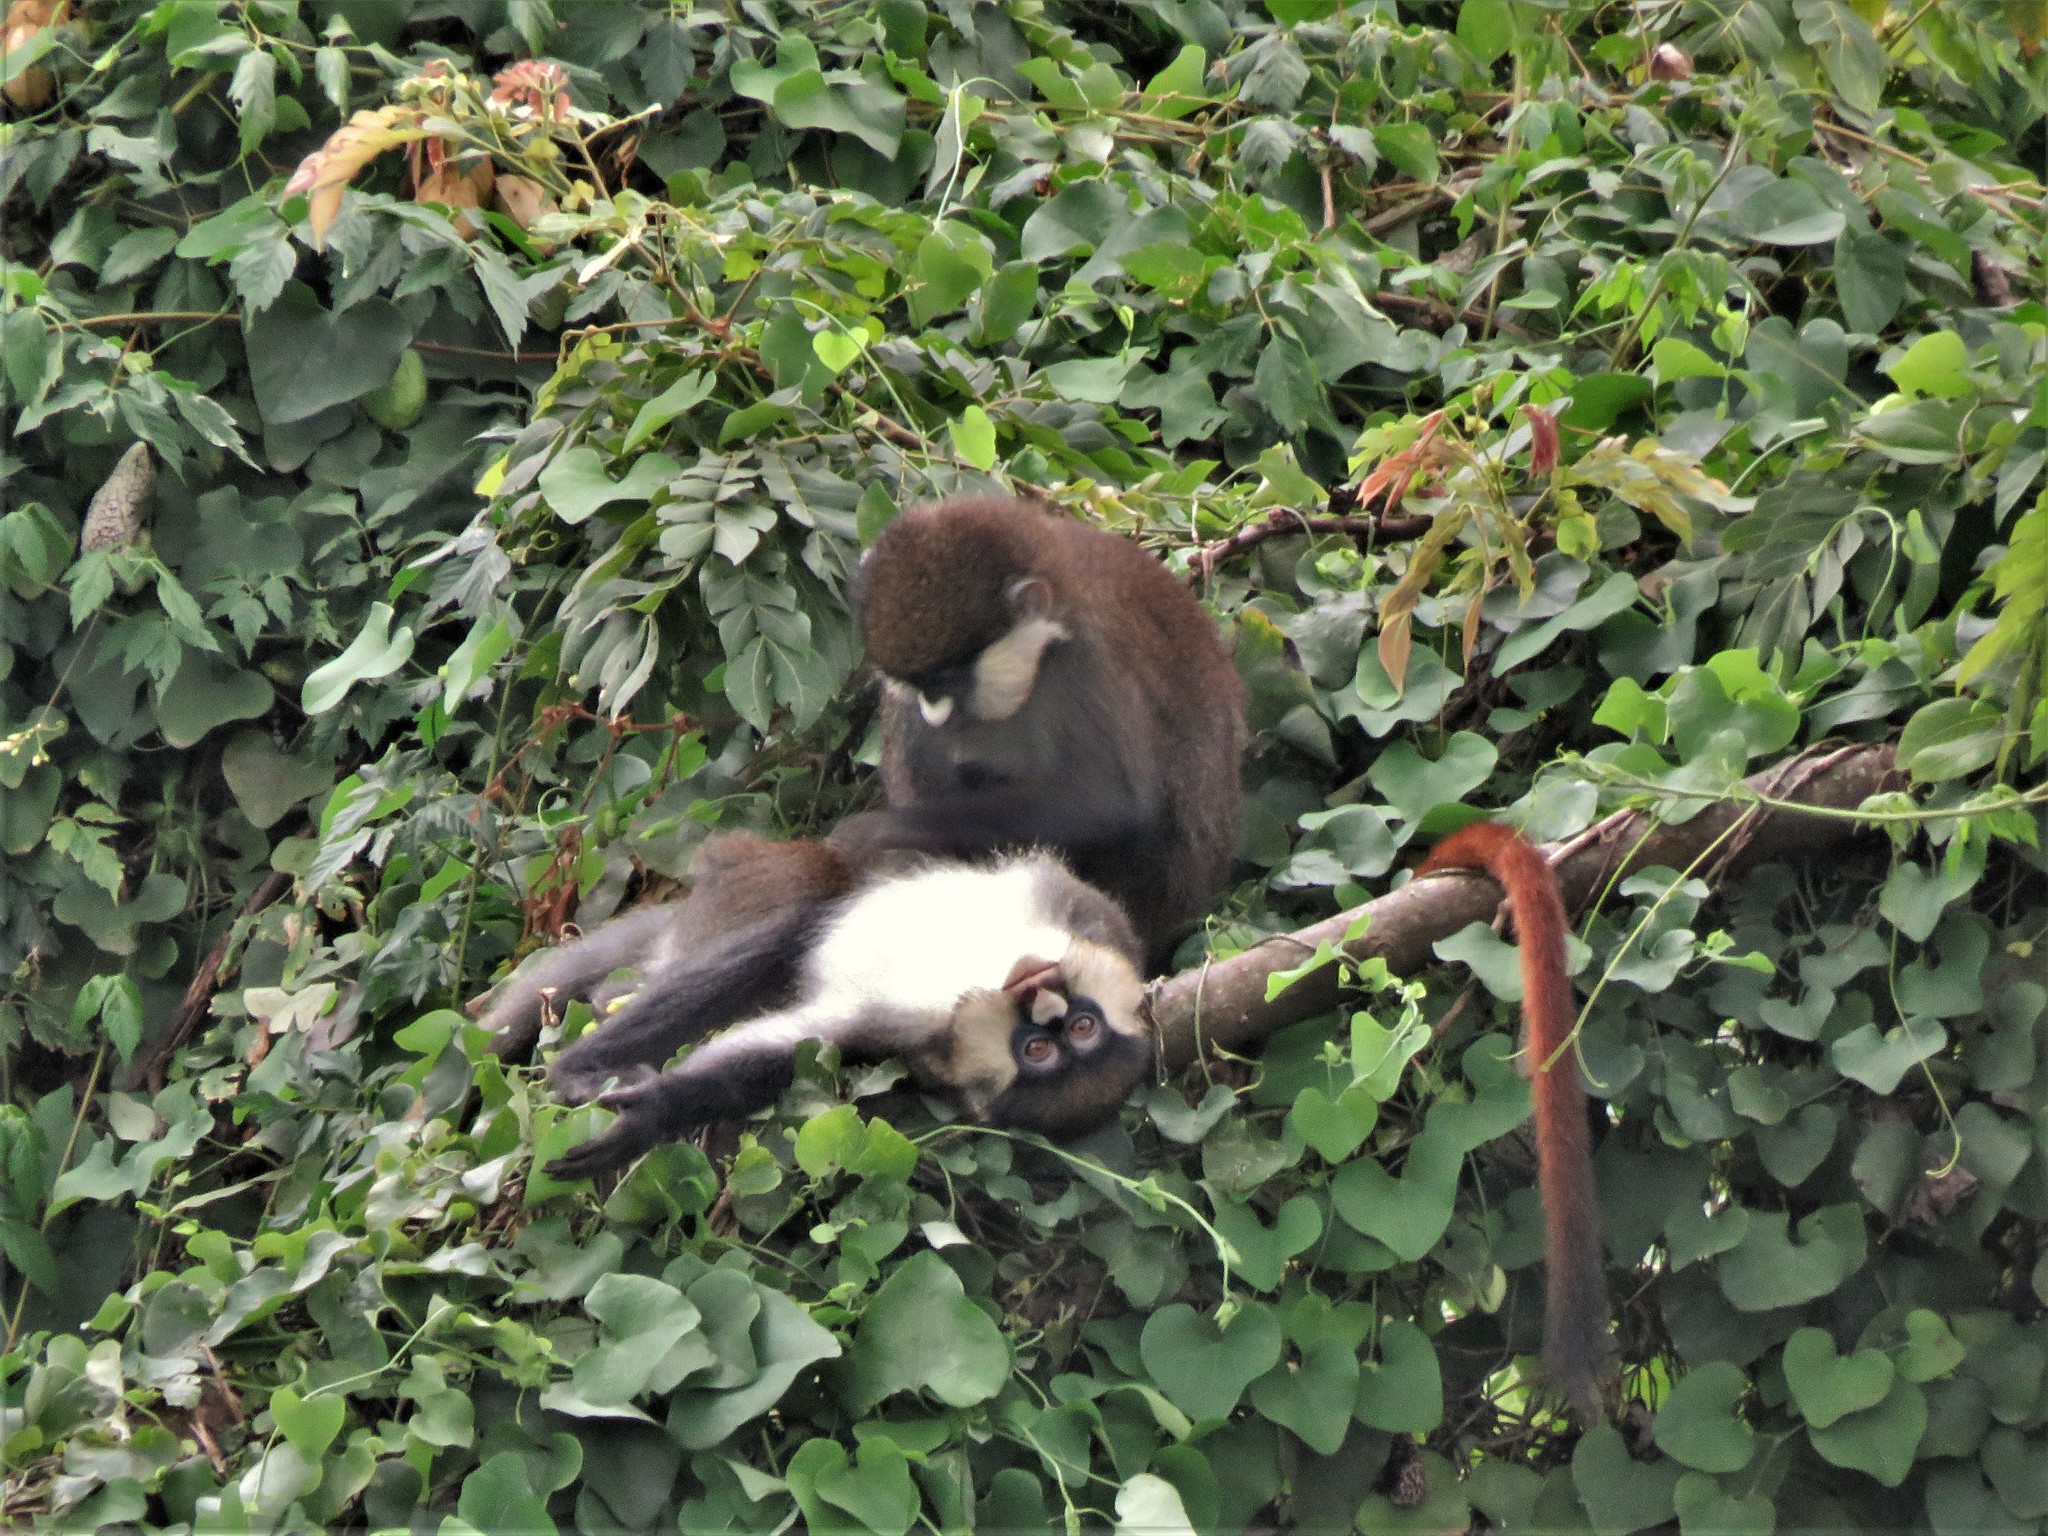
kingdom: Animalia
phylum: Chordata
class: Mammalia
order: Primates
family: Cercopithecidae
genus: Cercopithecus
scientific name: Cercopithecus ascanius
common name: Red-tailed monkey
